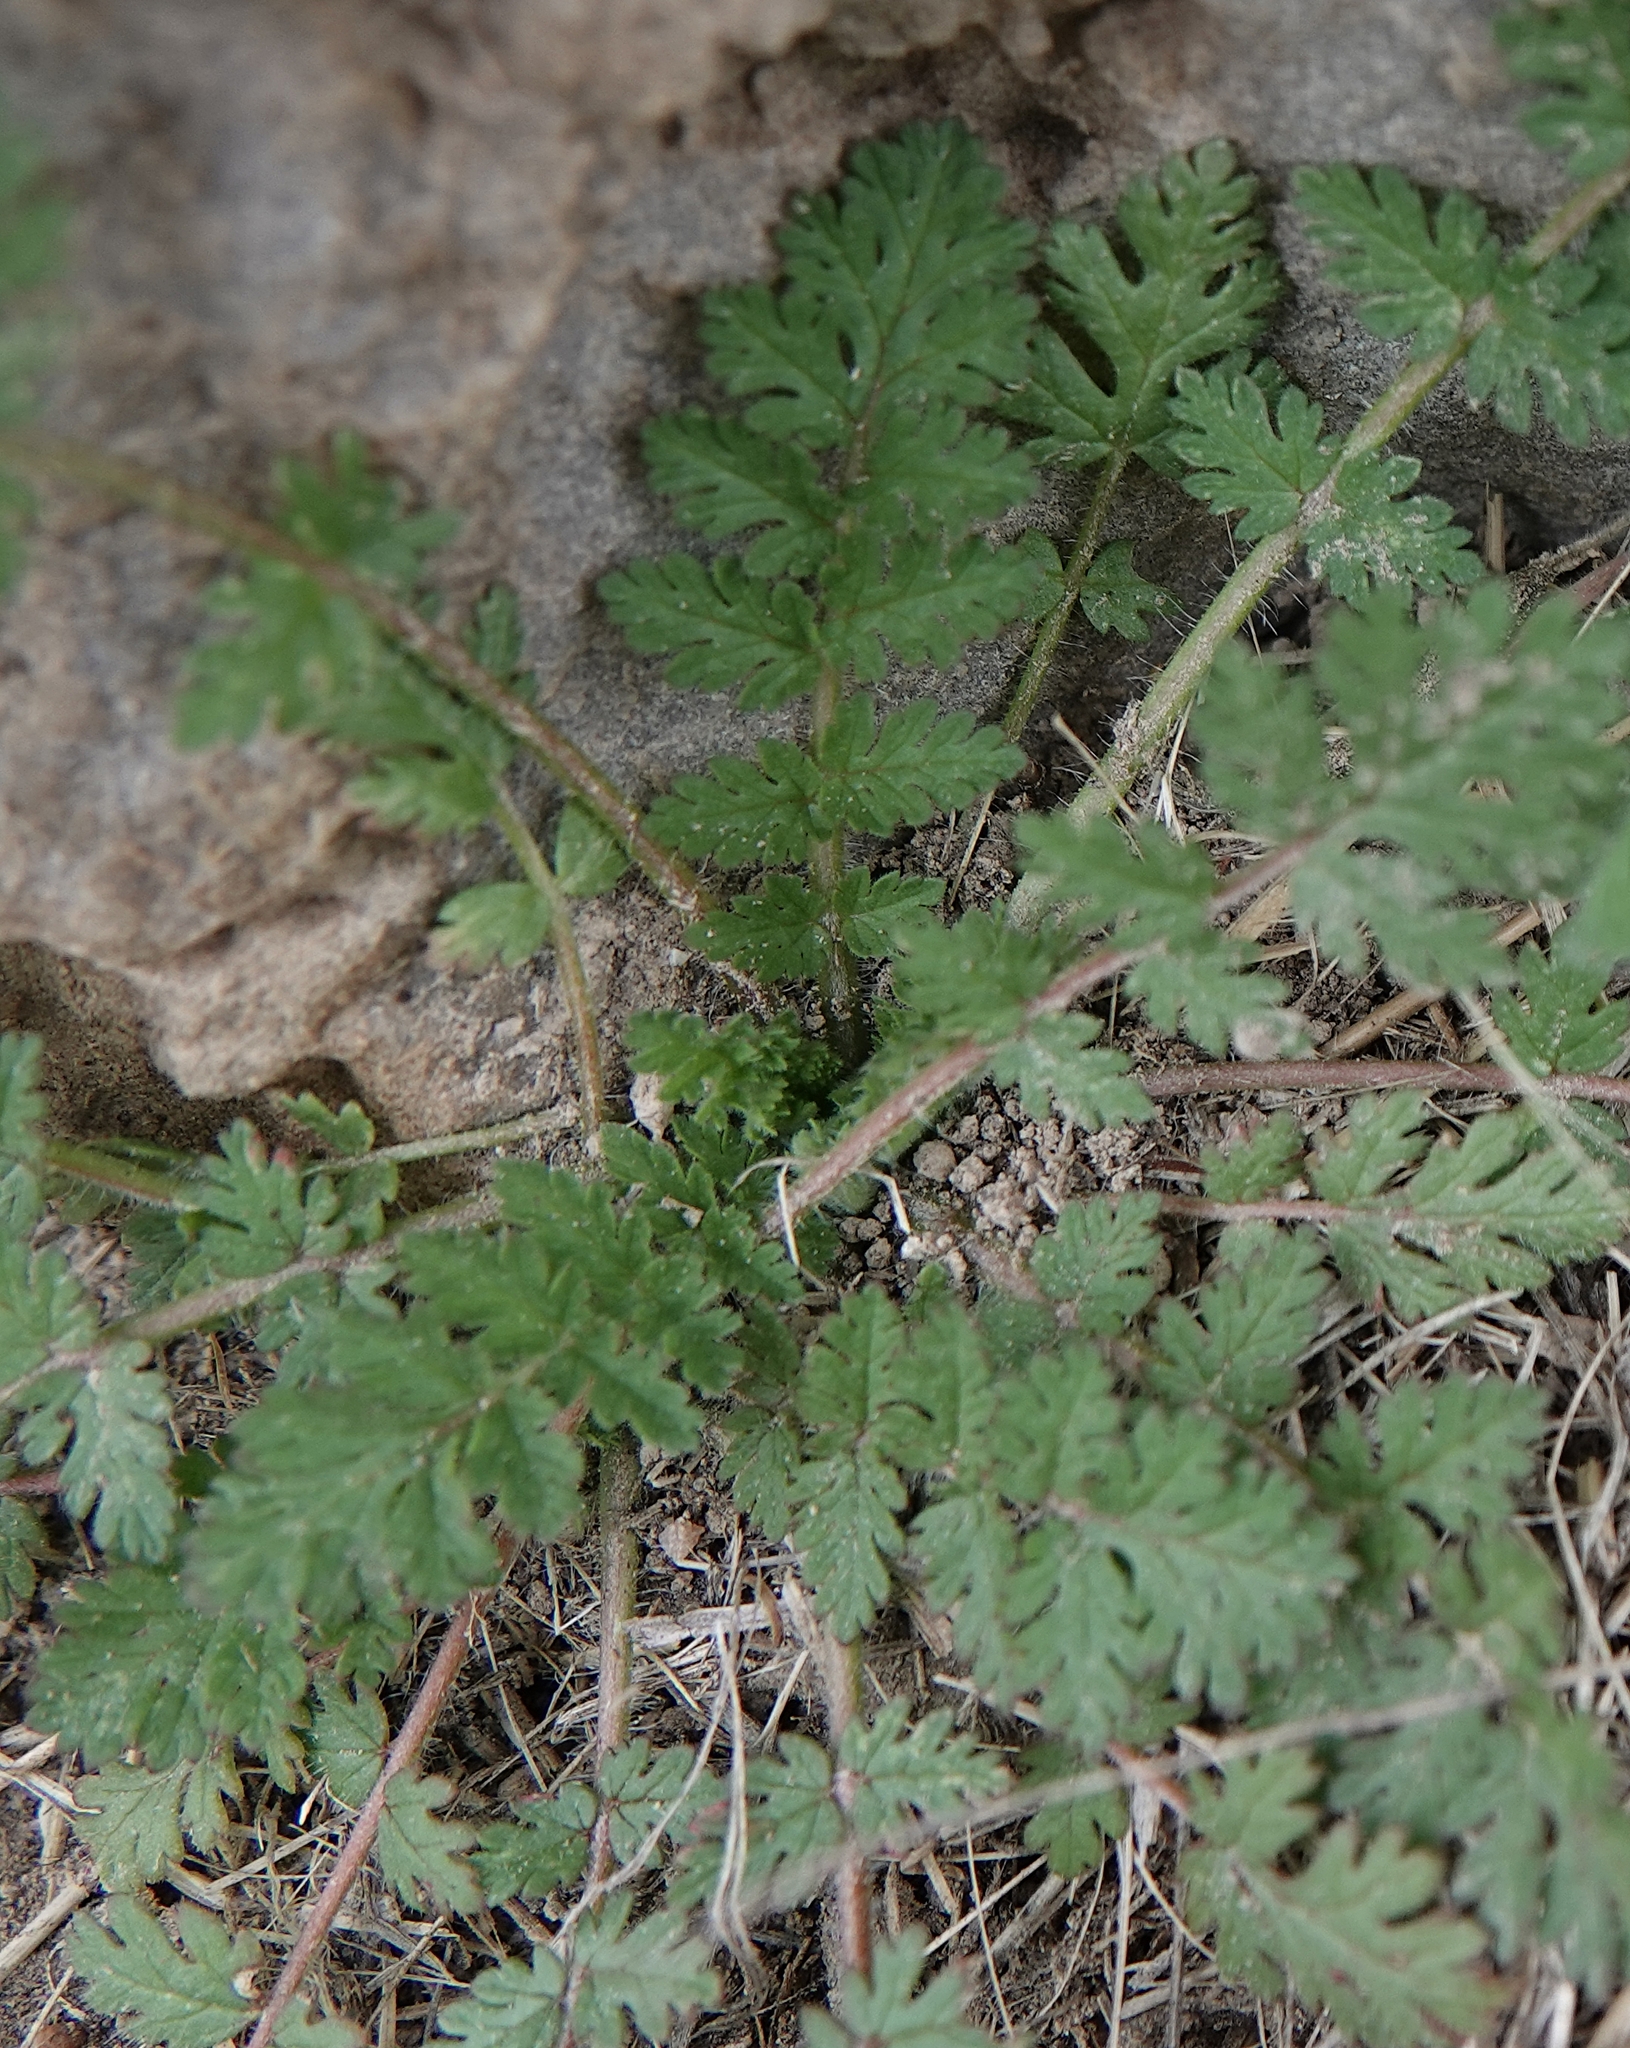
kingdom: Plantae
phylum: Tracheophyta
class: Magnoliopsida
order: Geraniales
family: Geraniaceae
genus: Erodium
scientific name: Erodium cicutarium
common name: Common stork's-bill
